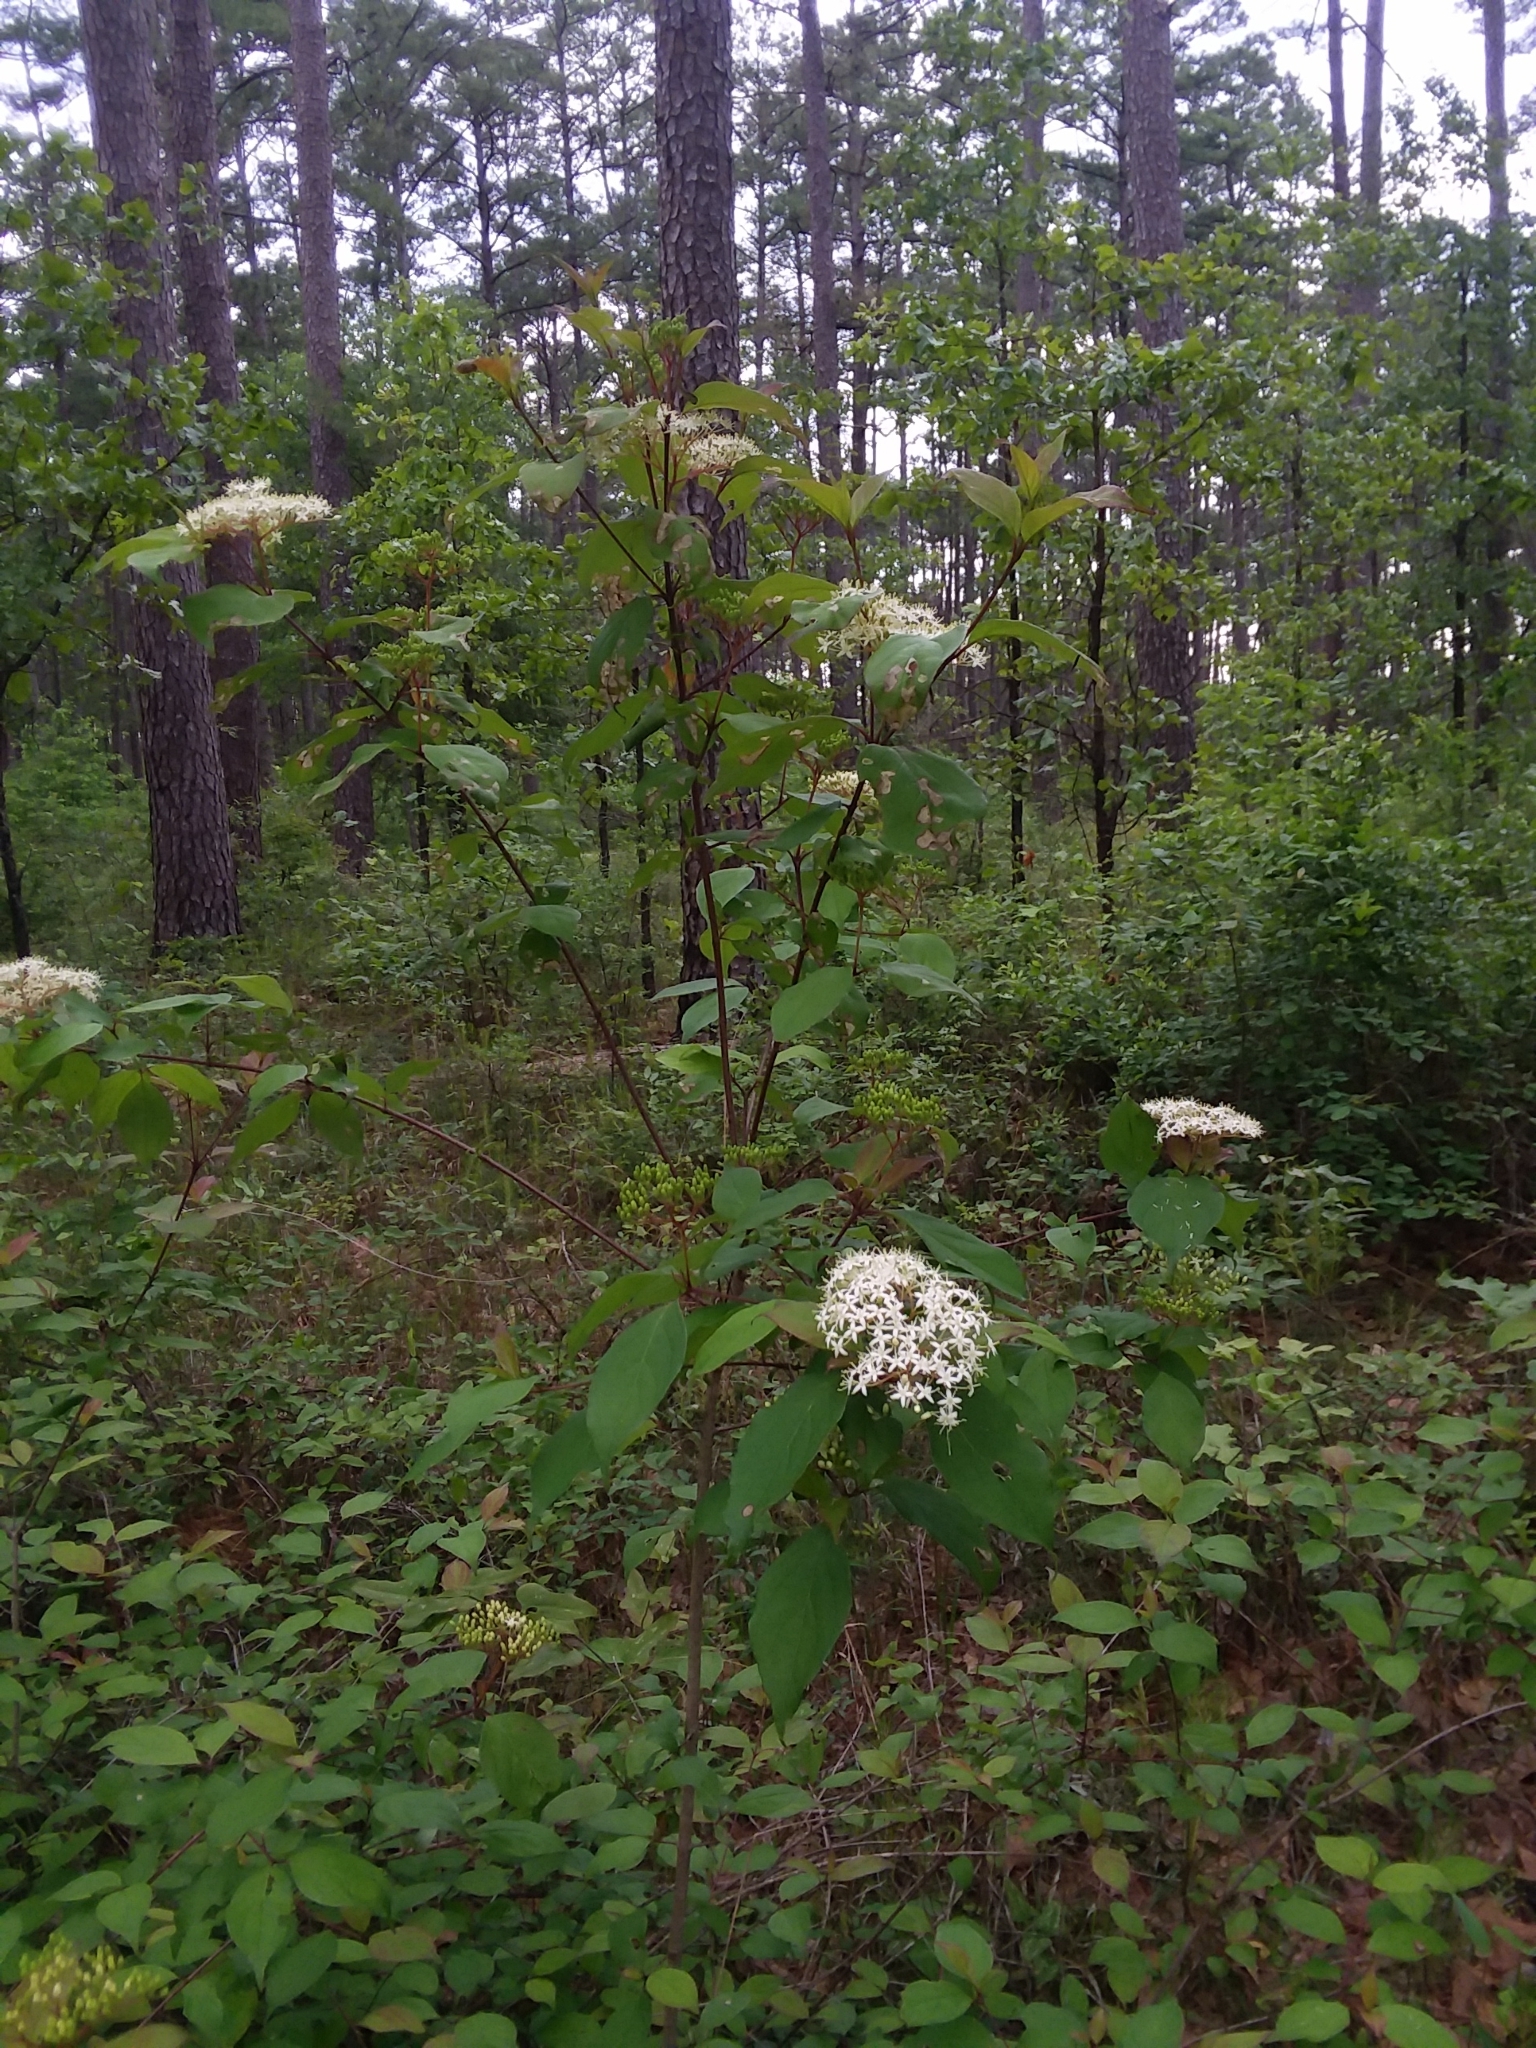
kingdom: Plantae
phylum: Tracheophyta
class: Magnoliopsida
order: Cornales
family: Cornaceae
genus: Cornus
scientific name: Cornus foemina
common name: Swamp dogwood
